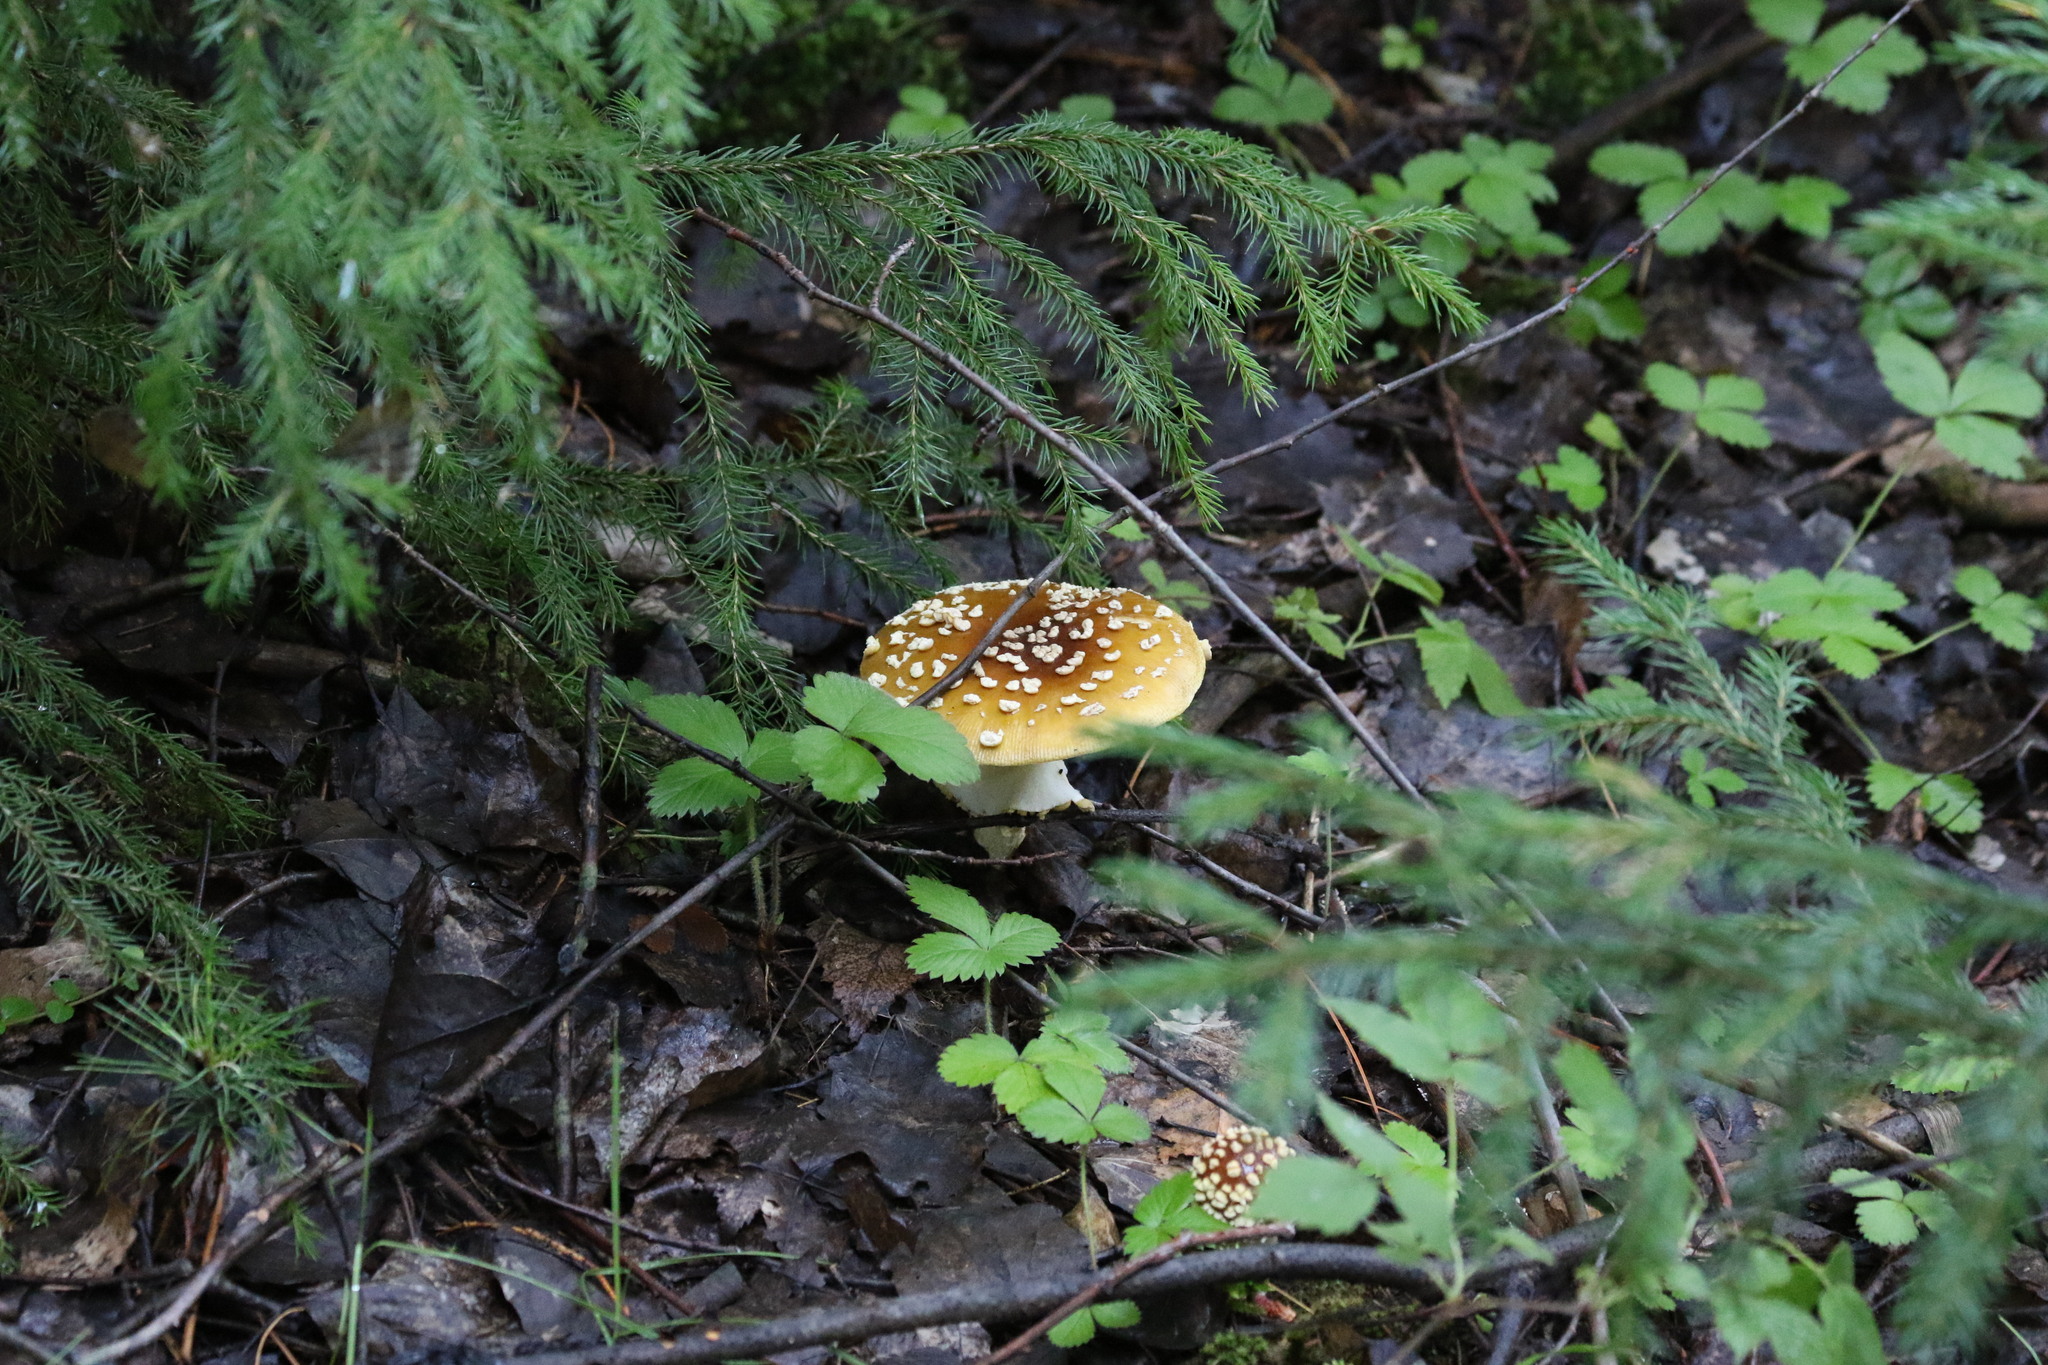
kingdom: Fungi
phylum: Basidiomycota
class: Agaricomycetes
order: Agaricales
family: Amanitaceae
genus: Amanita
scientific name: Amanita regalis
